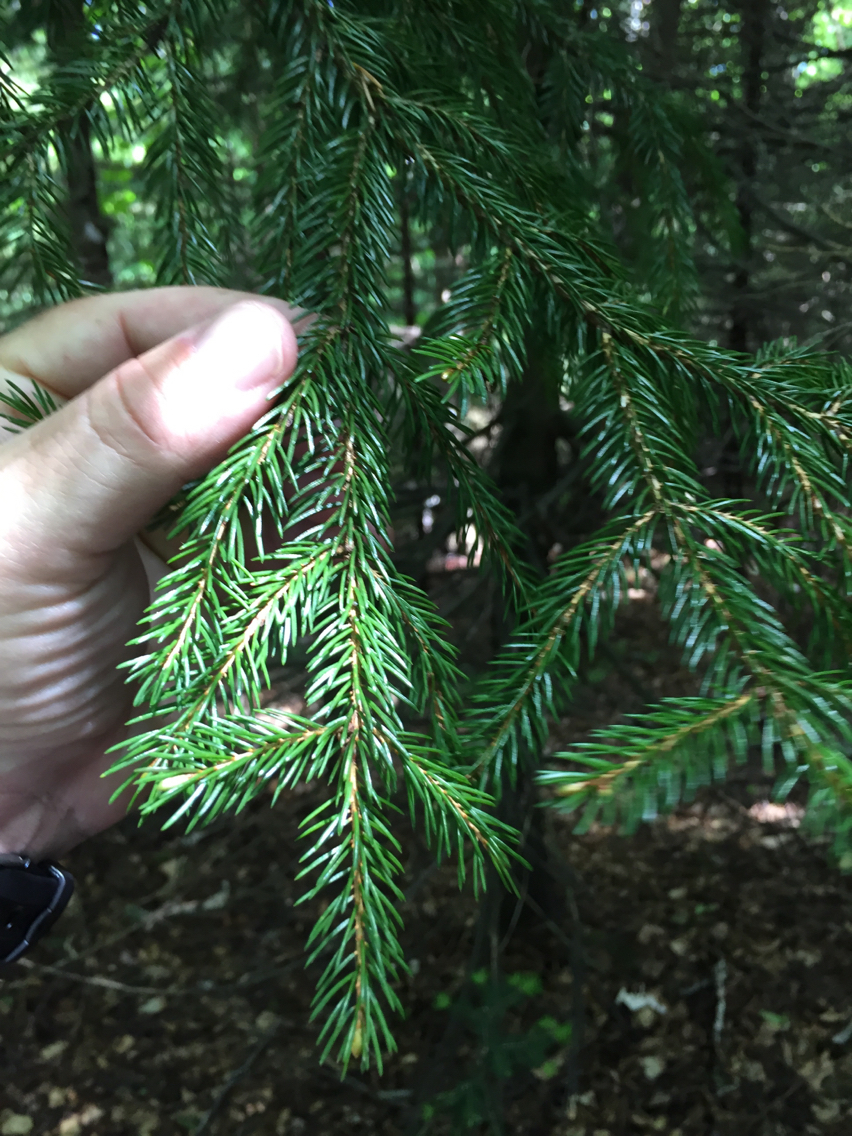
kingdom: Plantae
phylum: Tracheophyta
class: Pinopsida
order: Pinales
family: Pinaceae
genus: Picea
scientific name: Picea rubens
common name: Red spruce
